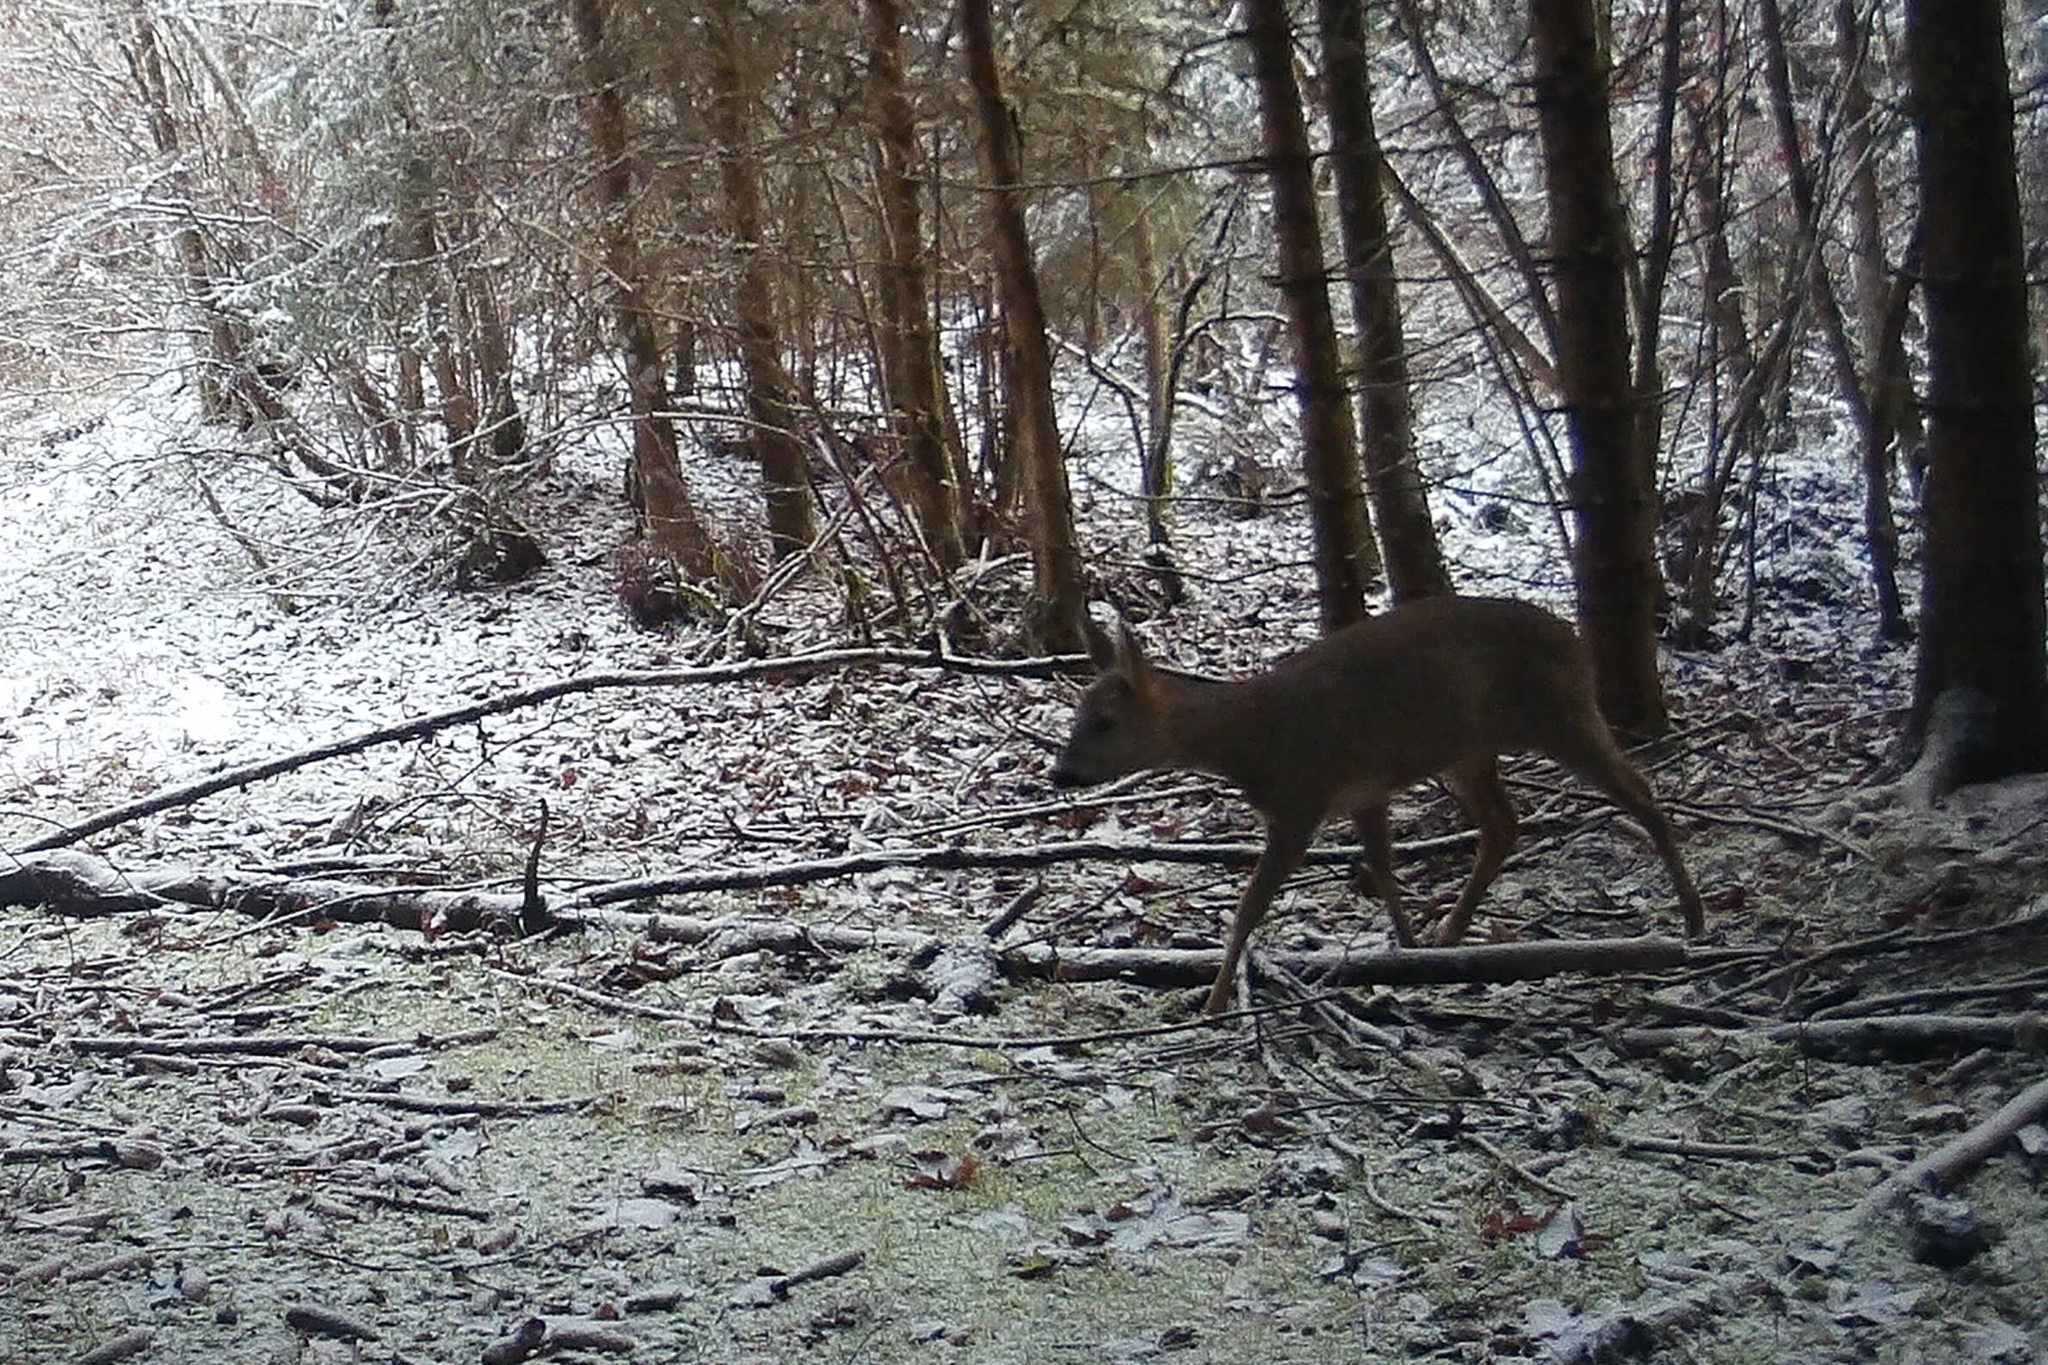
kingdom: Animalia
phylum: Chordata
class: Mammalia
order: Artiodactyla
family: Cervidae
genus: Capreolus
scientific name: Capreolus capreolus
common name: Western roe deer
